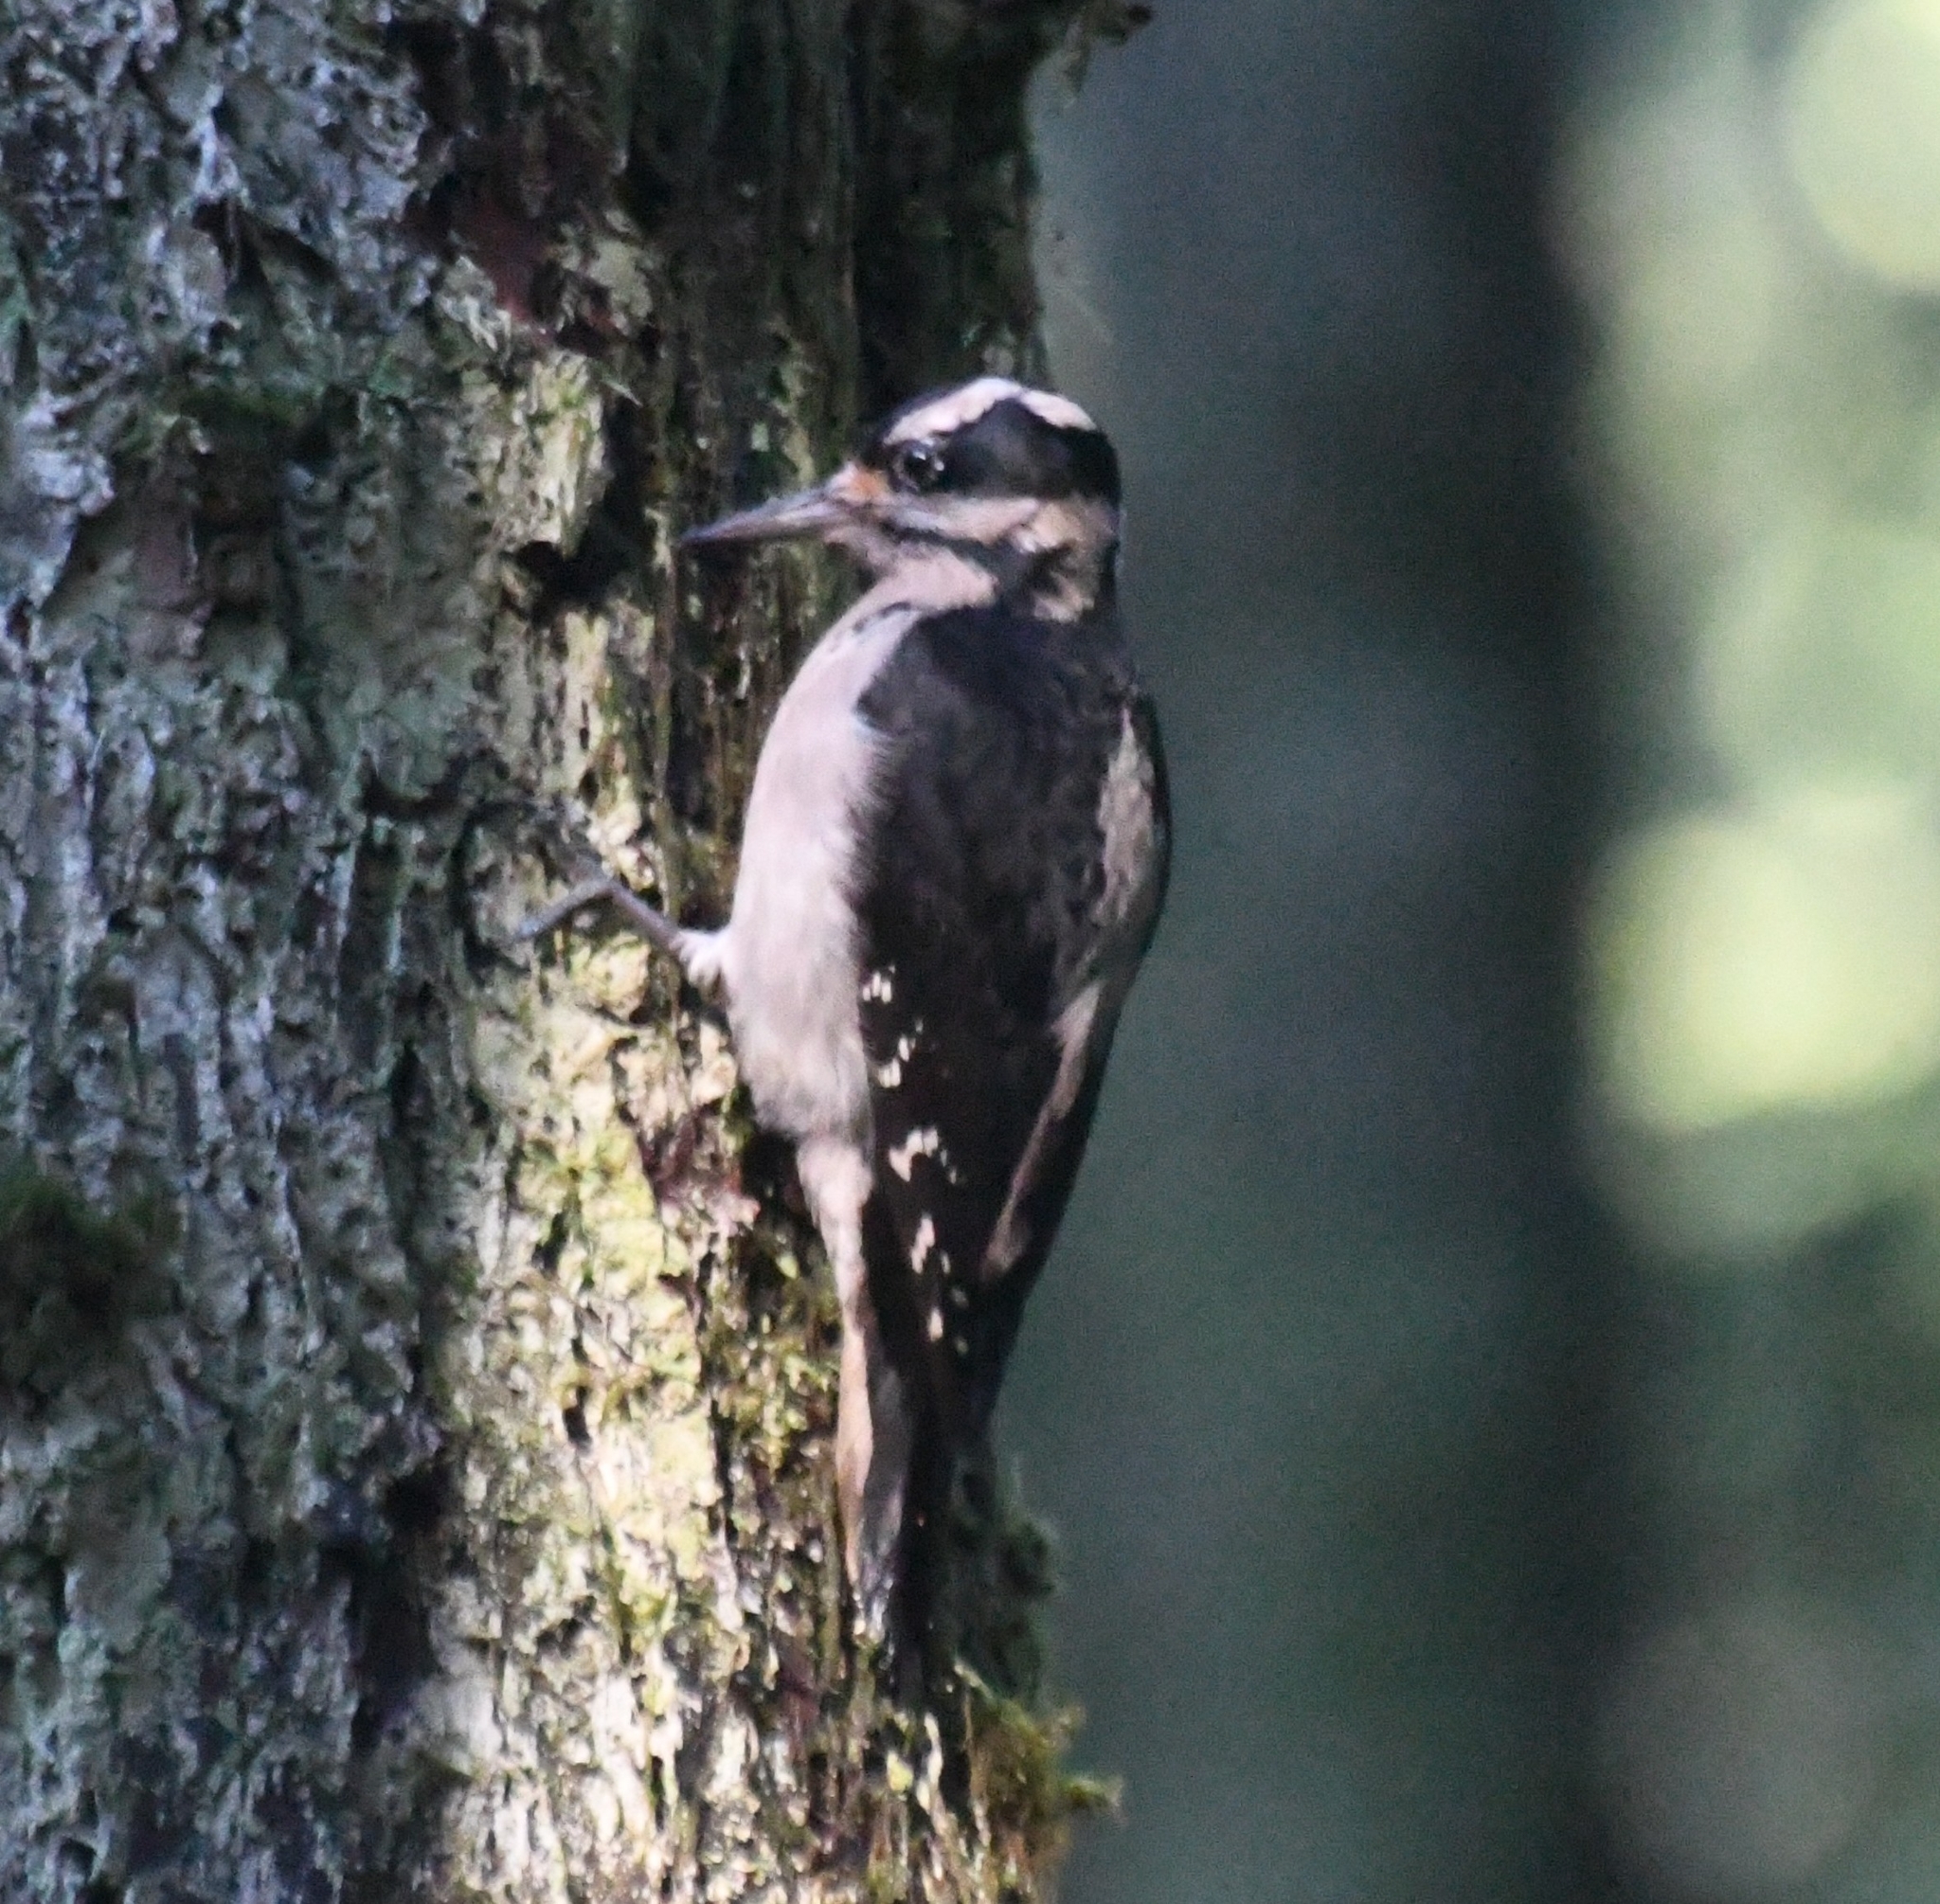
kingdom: Animalia
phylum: Chordata
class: Aves
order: Piciformes
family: Picidae
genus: Leuconotopicus
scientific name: Leuconotopicus villosus
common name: Hairy woodpecker
